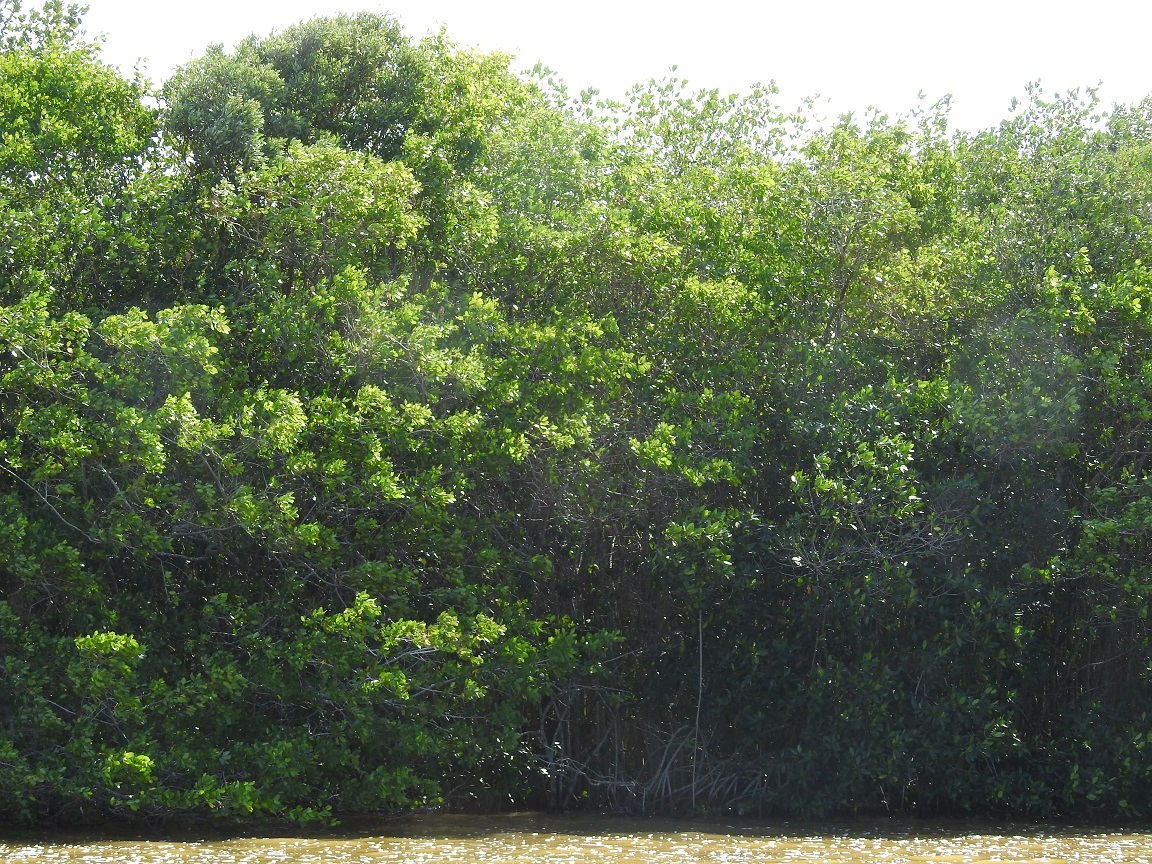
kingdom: Plantae
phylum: Tracheophyta
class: Magnoliopsida
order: Malpighiales
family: Rhizophoraceae
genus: Rhizophora
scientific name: Rhizophora mangle
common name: Red mangrove
